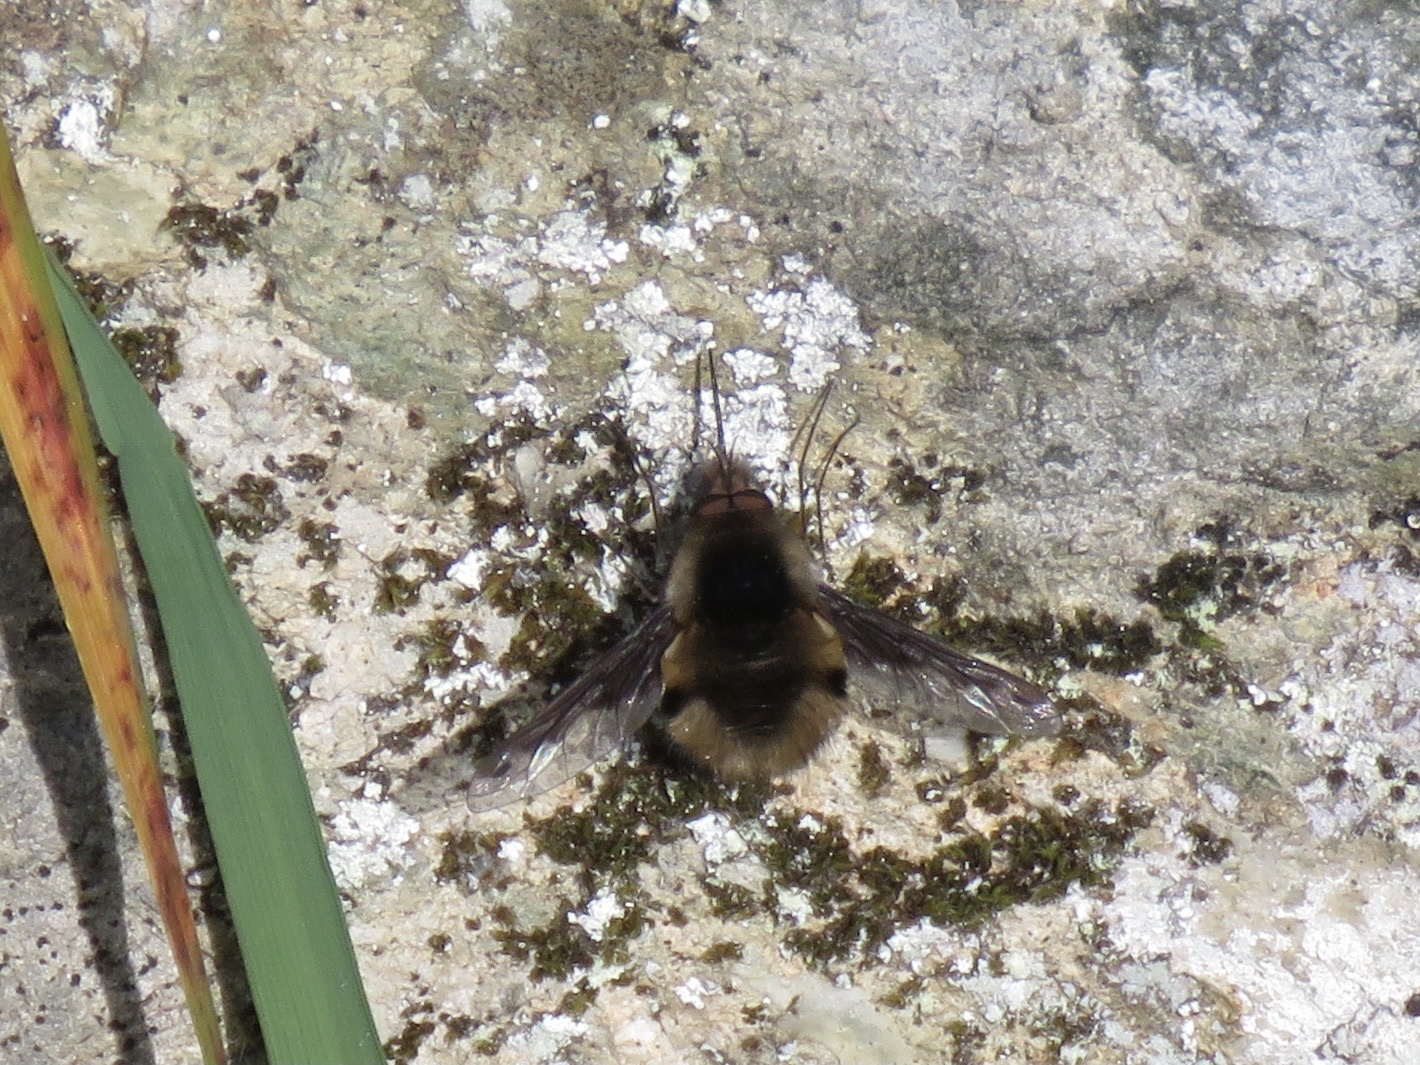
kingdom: Animalia
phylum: Arthropoda
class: Insecta
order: Diptera
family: Bombyliidae
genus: Bombylius
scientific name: Bombylius major
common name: Bee fly
